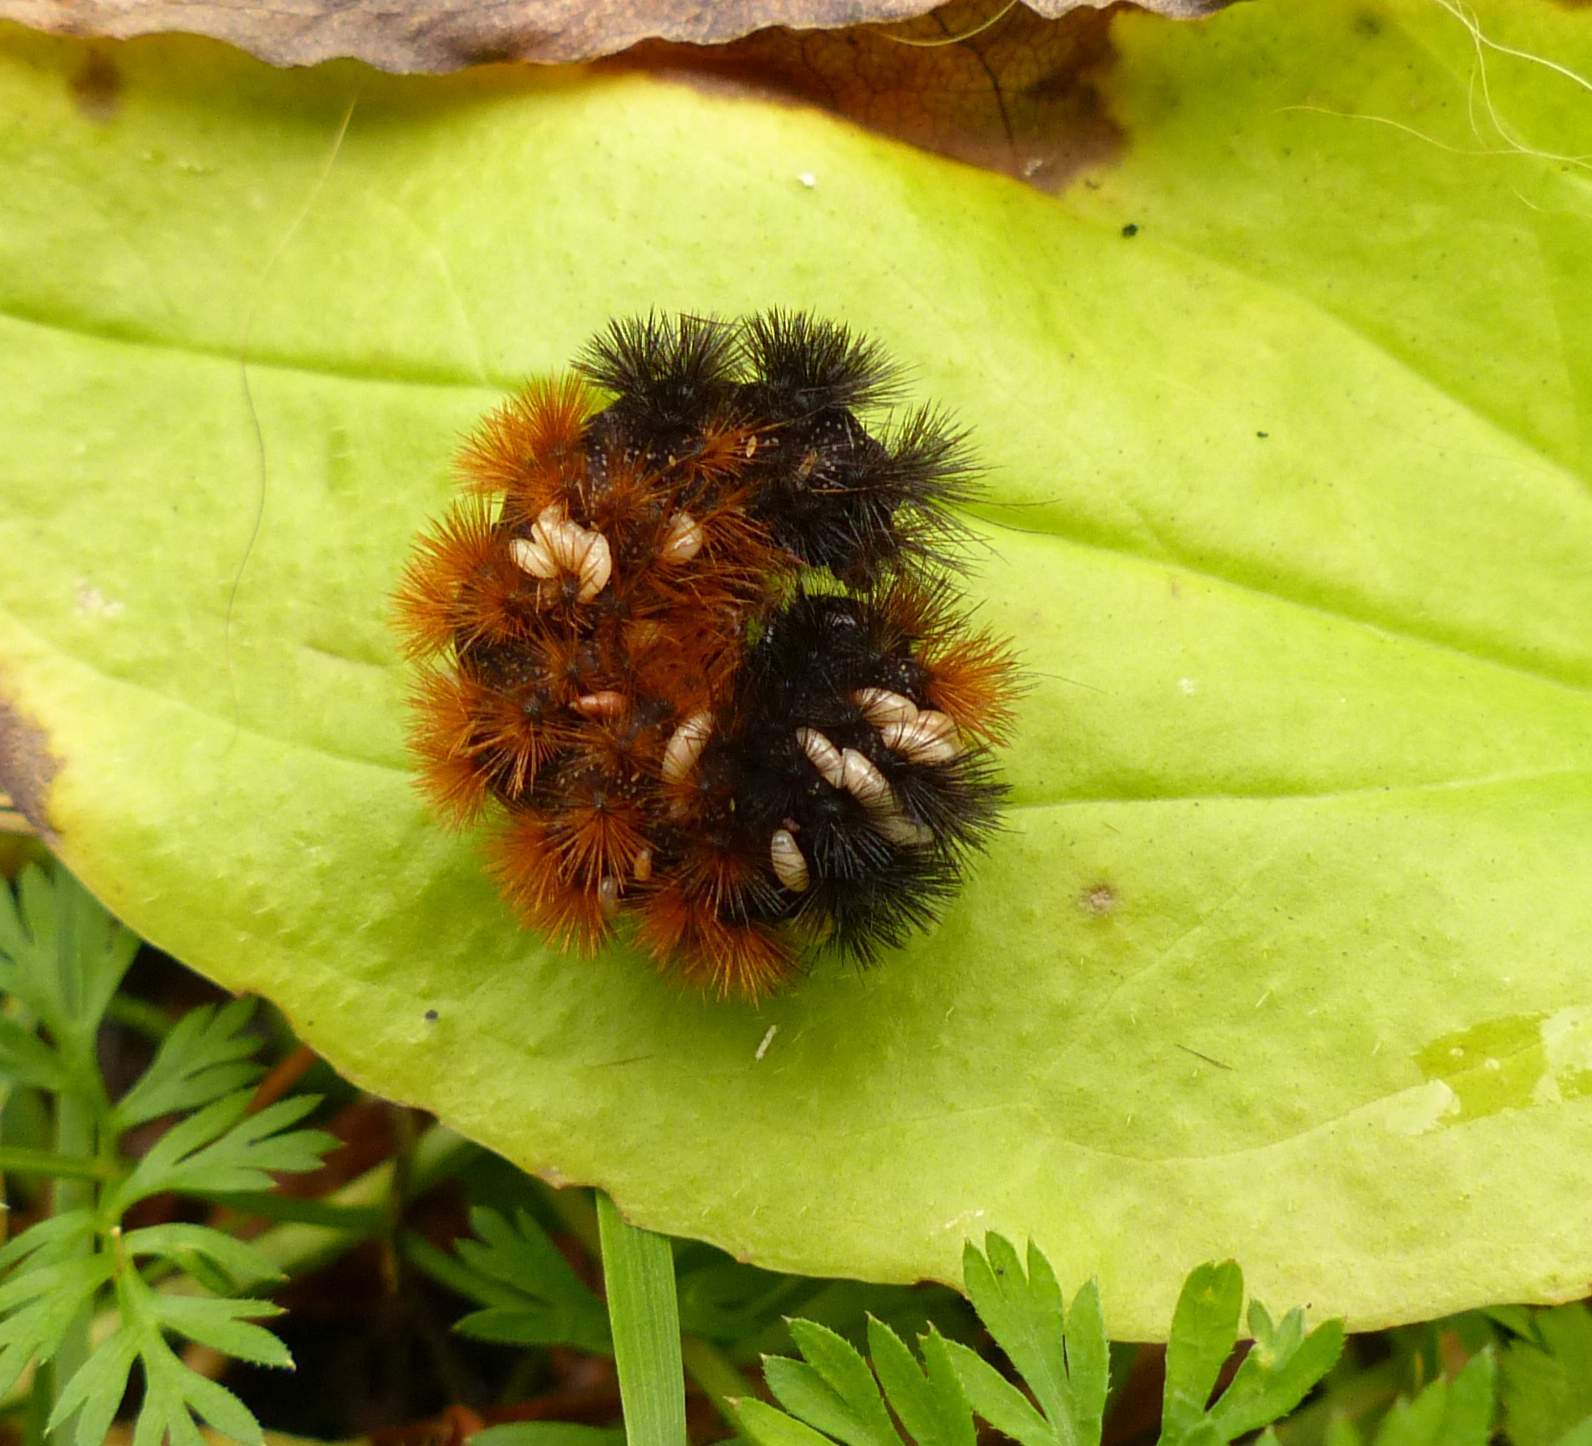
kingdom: Animalia
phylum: Arthropoda
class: Insecta
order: Lepidoptera
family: Erebidae
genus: Pyrrharctia
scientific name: Pyrrharctia isabella
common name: Isabella tiger moth
